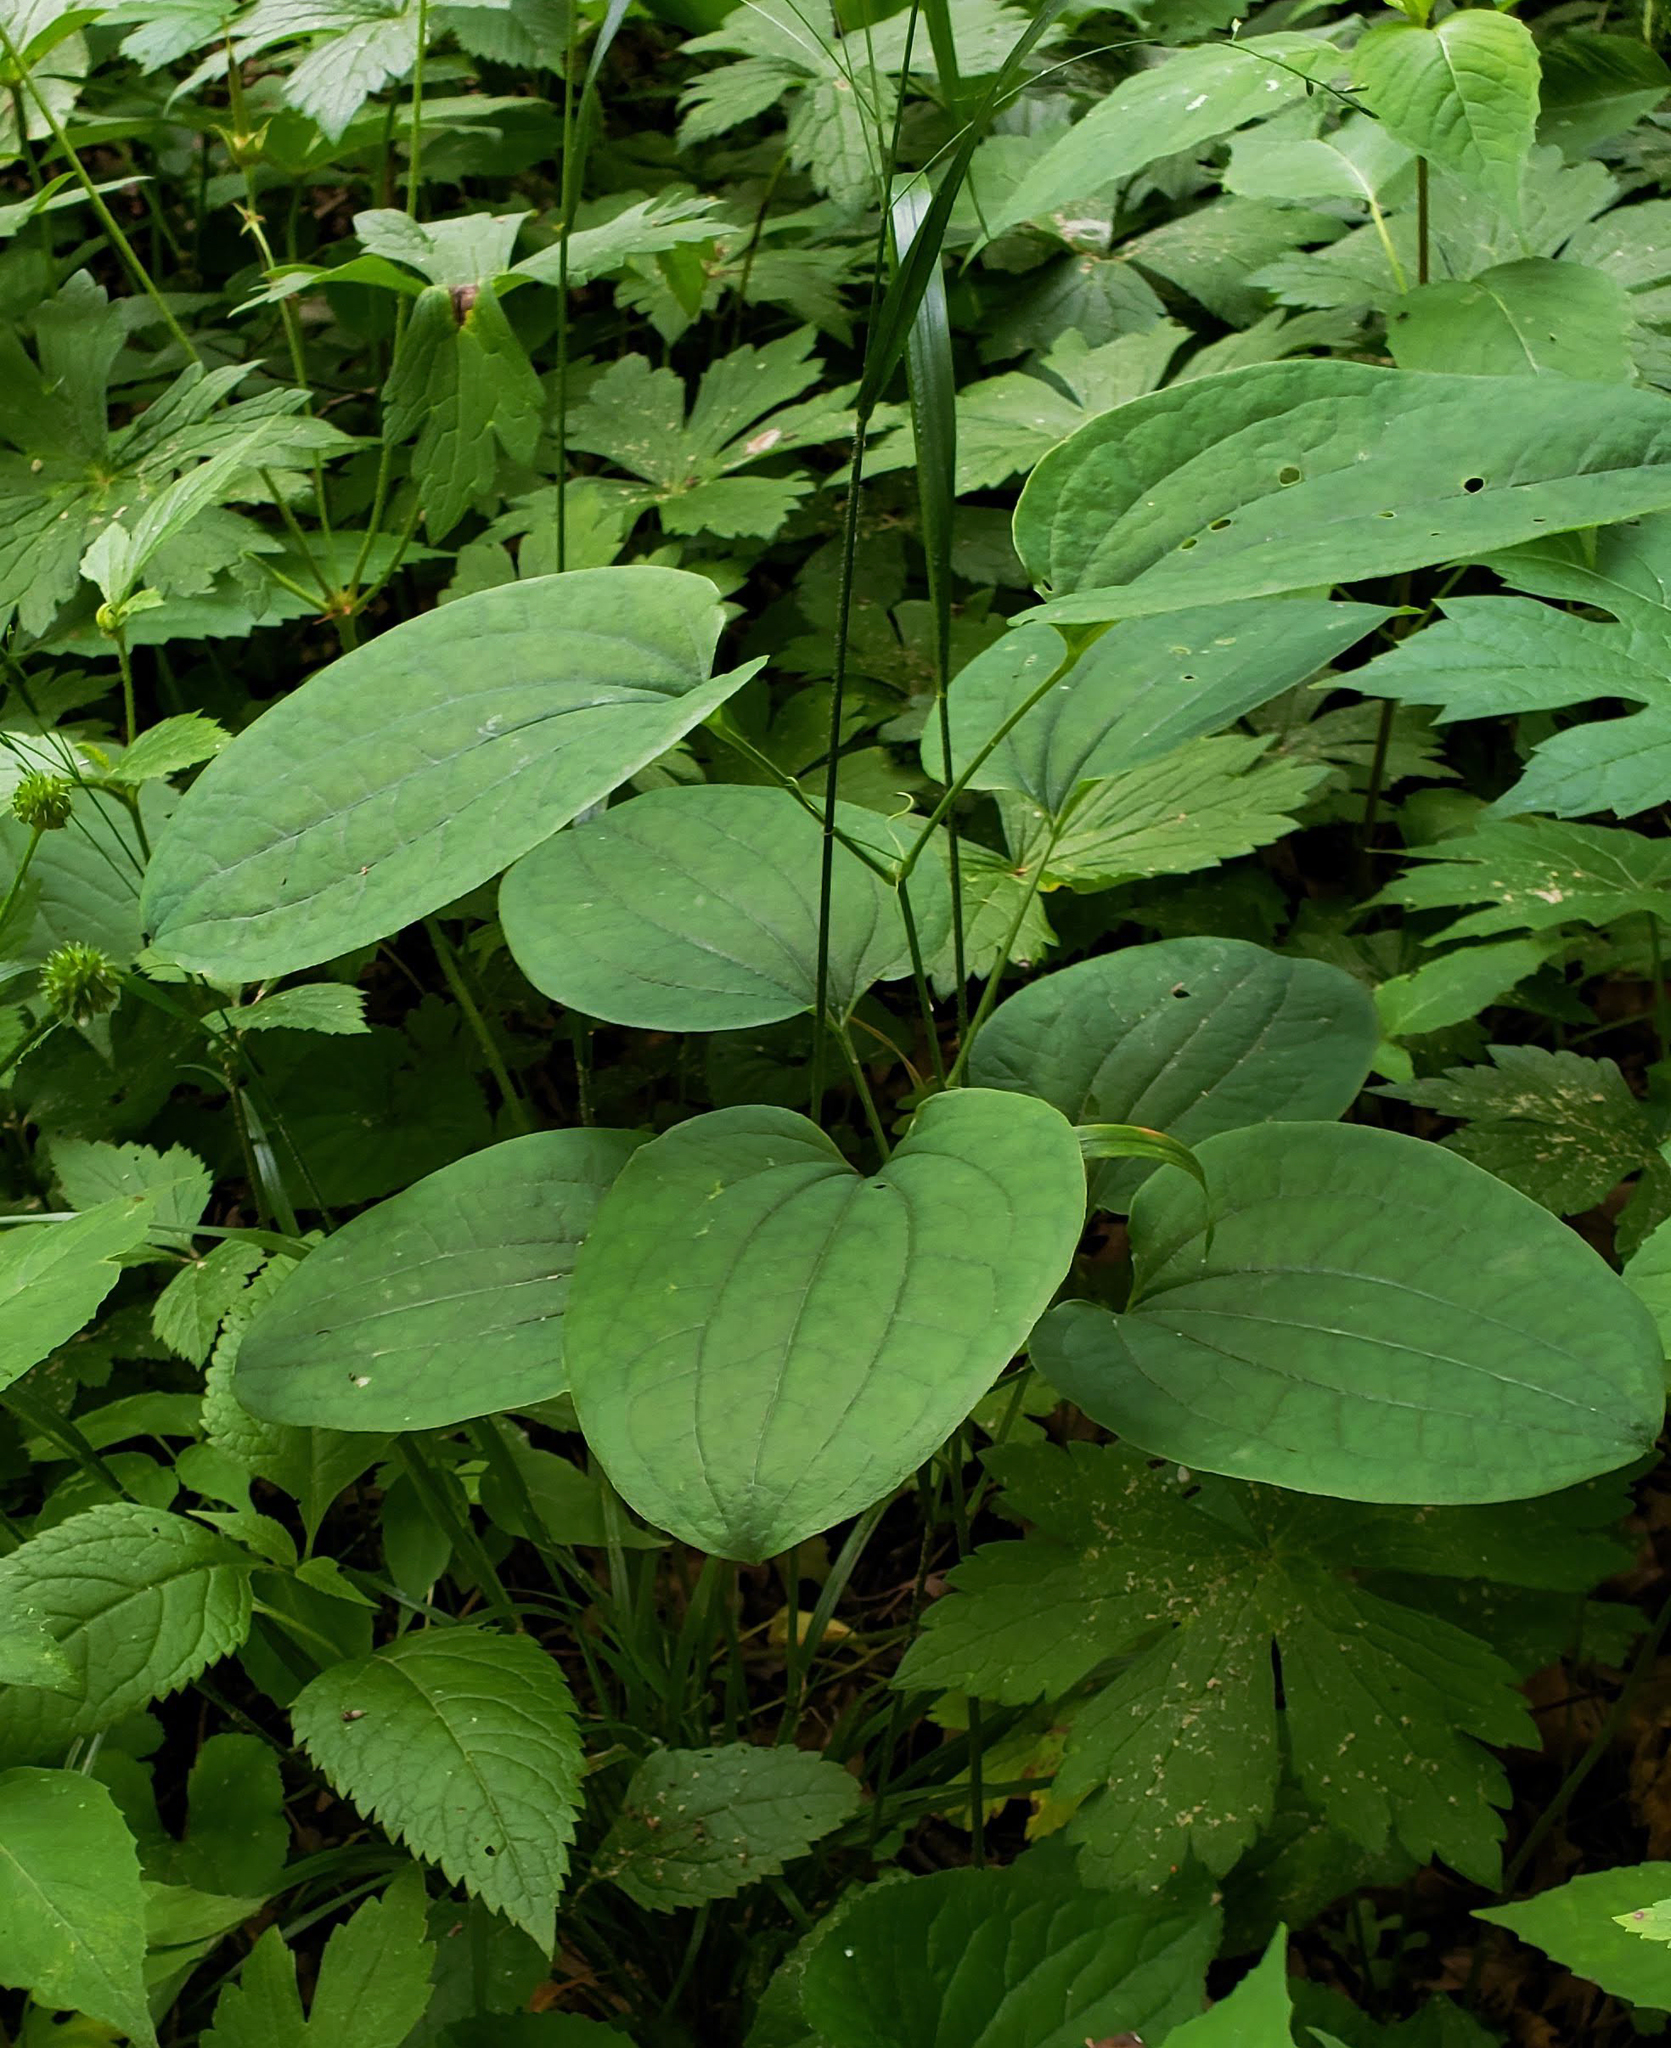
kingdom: Plantae
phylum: Tracheophyta
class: Liliopsida
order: Liliales
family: Smilacaceae
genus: Smilax
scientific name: Smilax ecirrhata
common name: Upright carrionflower
